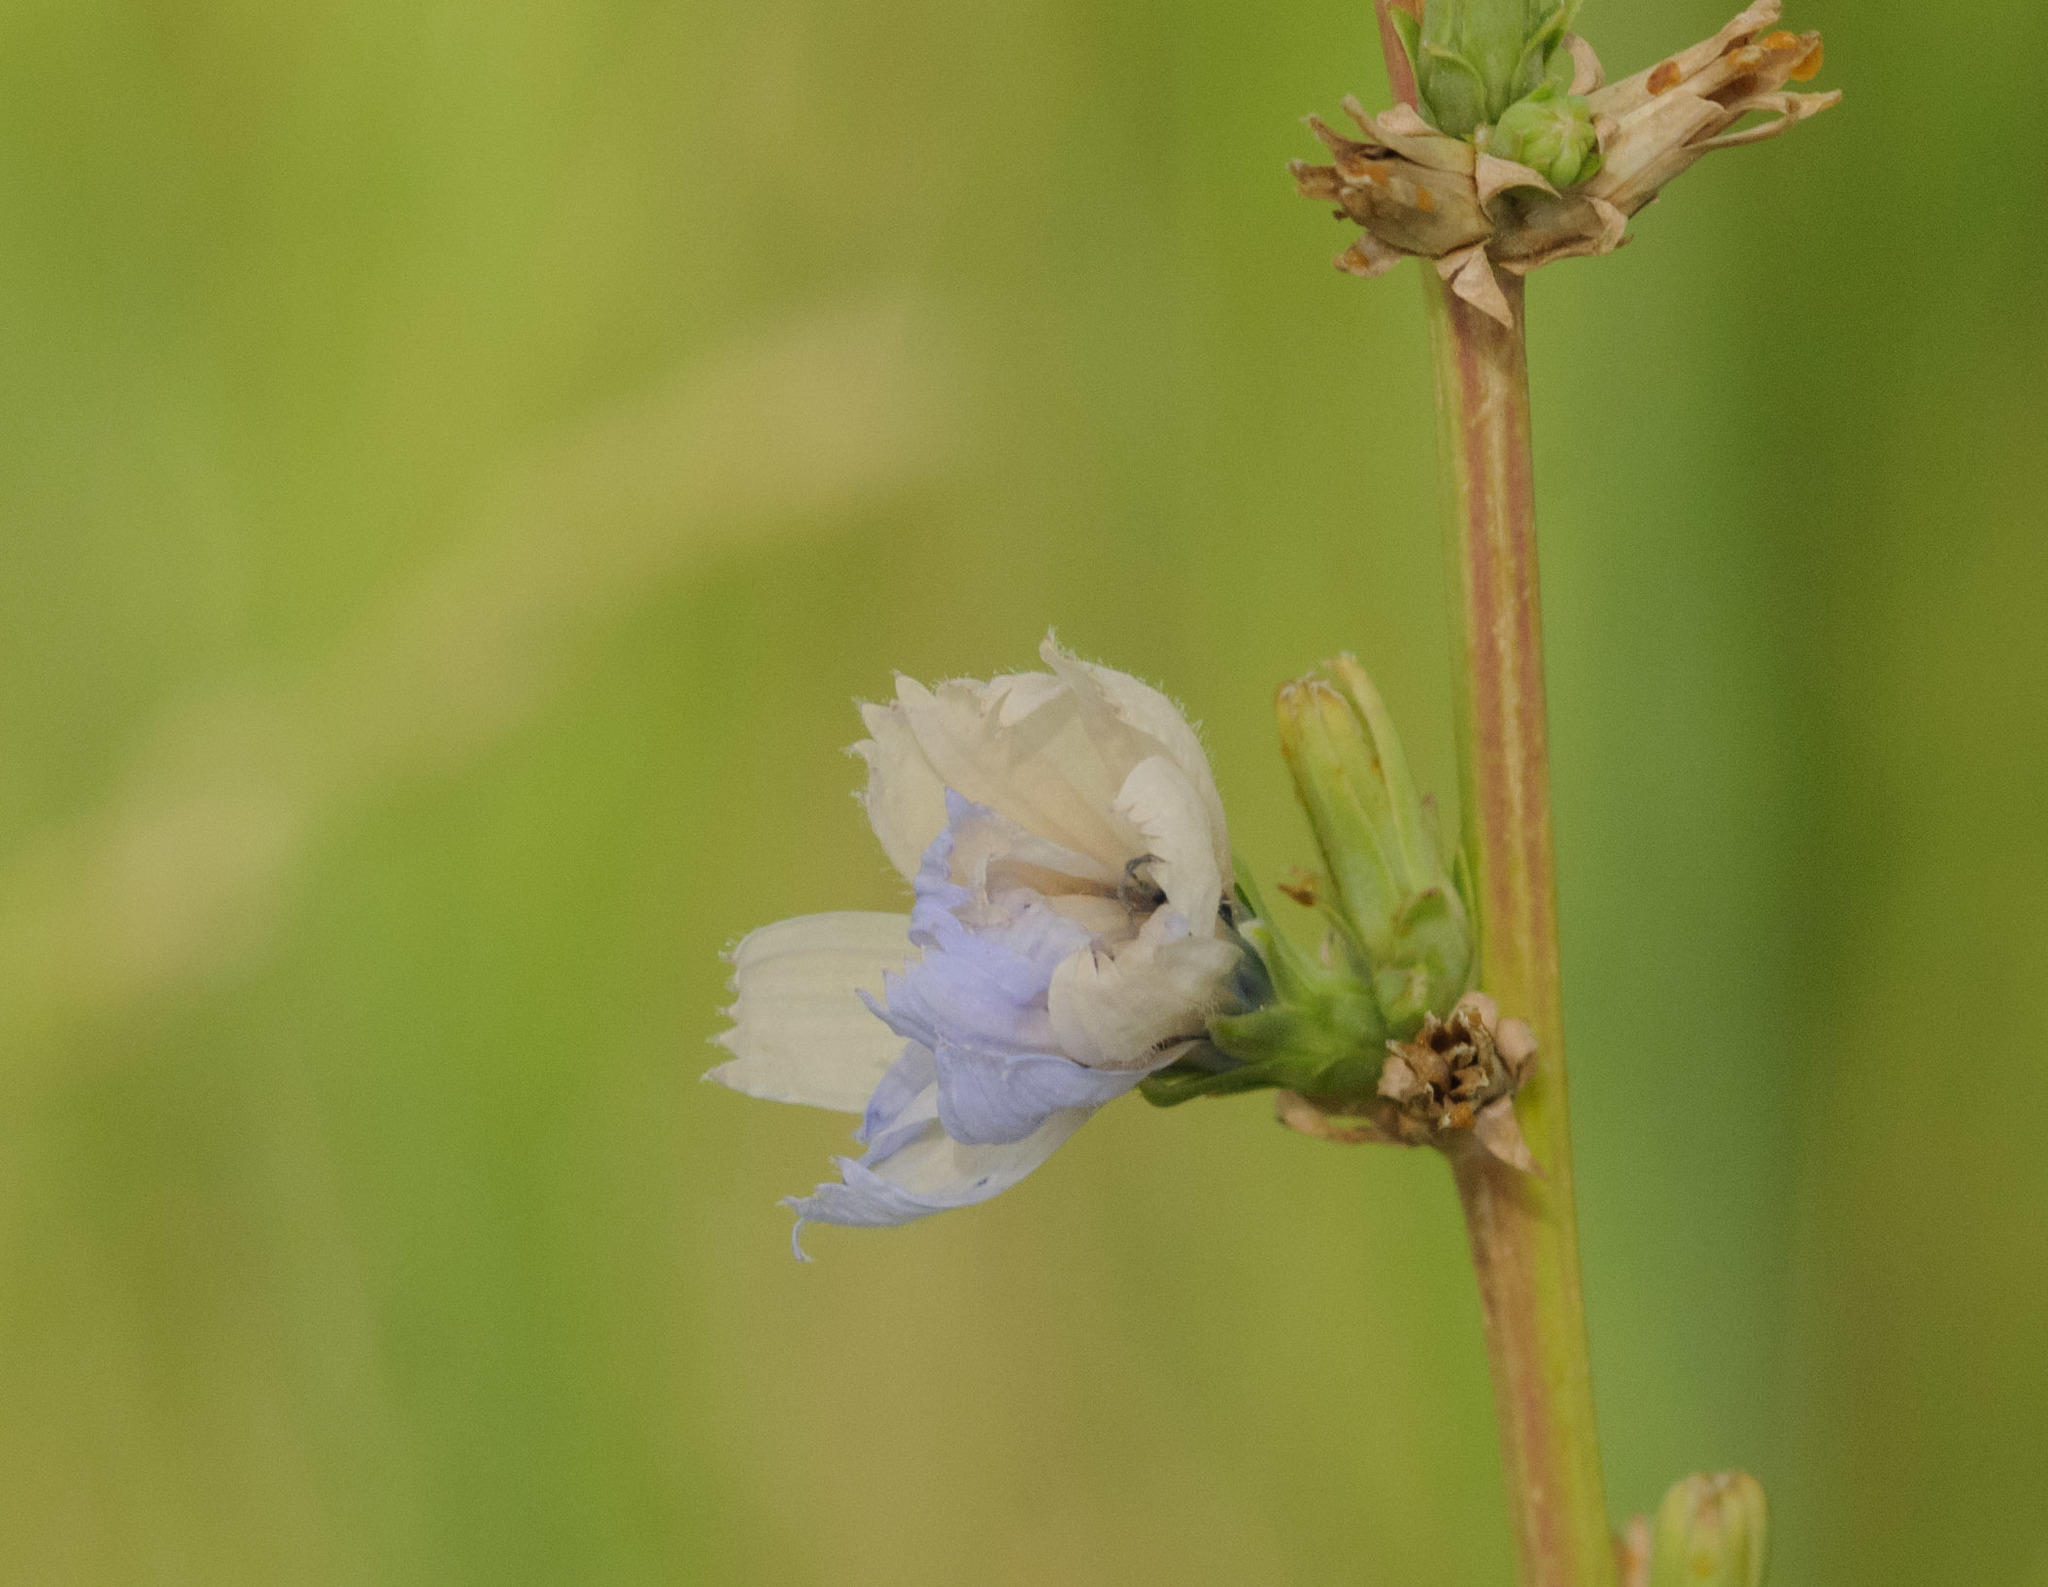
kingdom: Plantae
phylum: Tracheophyta
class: Magnoliopsida
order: Asterales
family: Asteraceae
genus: Cichorium
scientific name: Cichorium intybus
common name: Chicory
